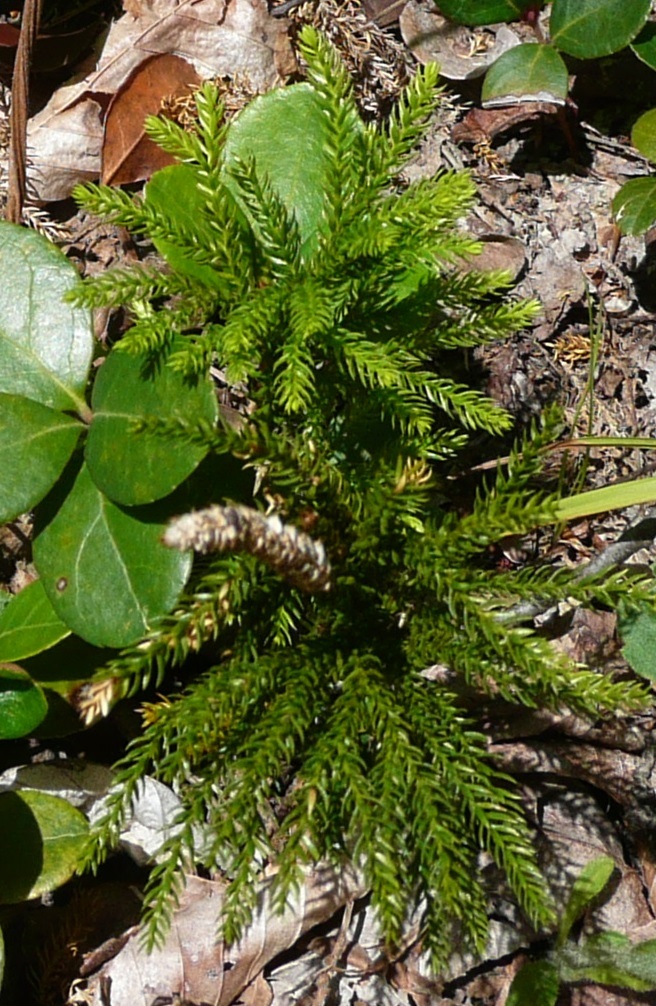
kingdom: Plantae
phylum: Tracheophyta
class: Lycopodiopsida
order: Lycopodiales
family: Lycopodiaceae
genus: Dendrolycopodium
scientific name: Dendrolycopodium dendroideum
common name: Northern tree-clubmoss
